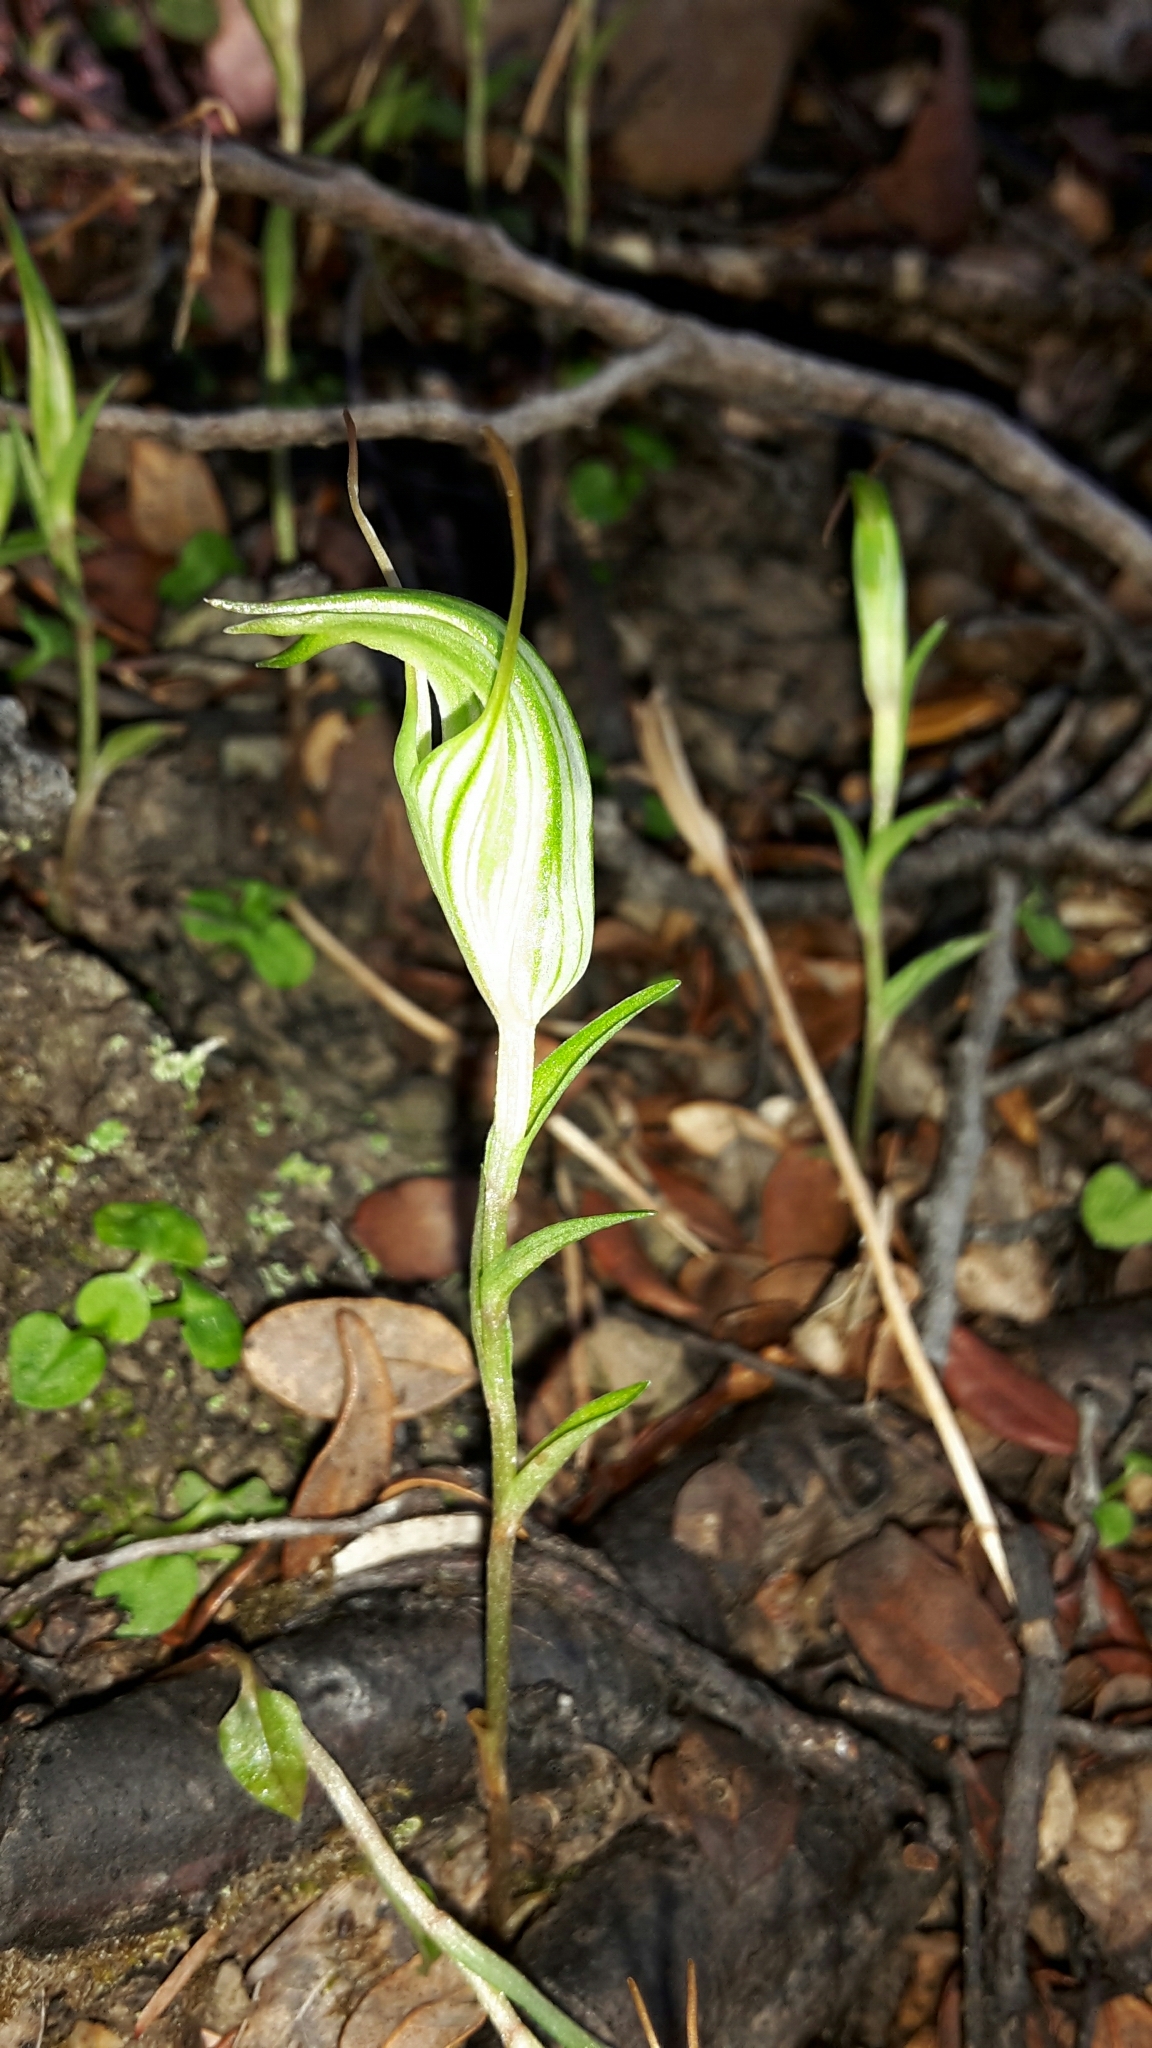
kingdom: Plantae
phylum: Tracheophyta
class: Liliopsida
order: Asparagales
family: Orchidaceae
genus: Pterostylis
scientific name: Pterostylis alobula
